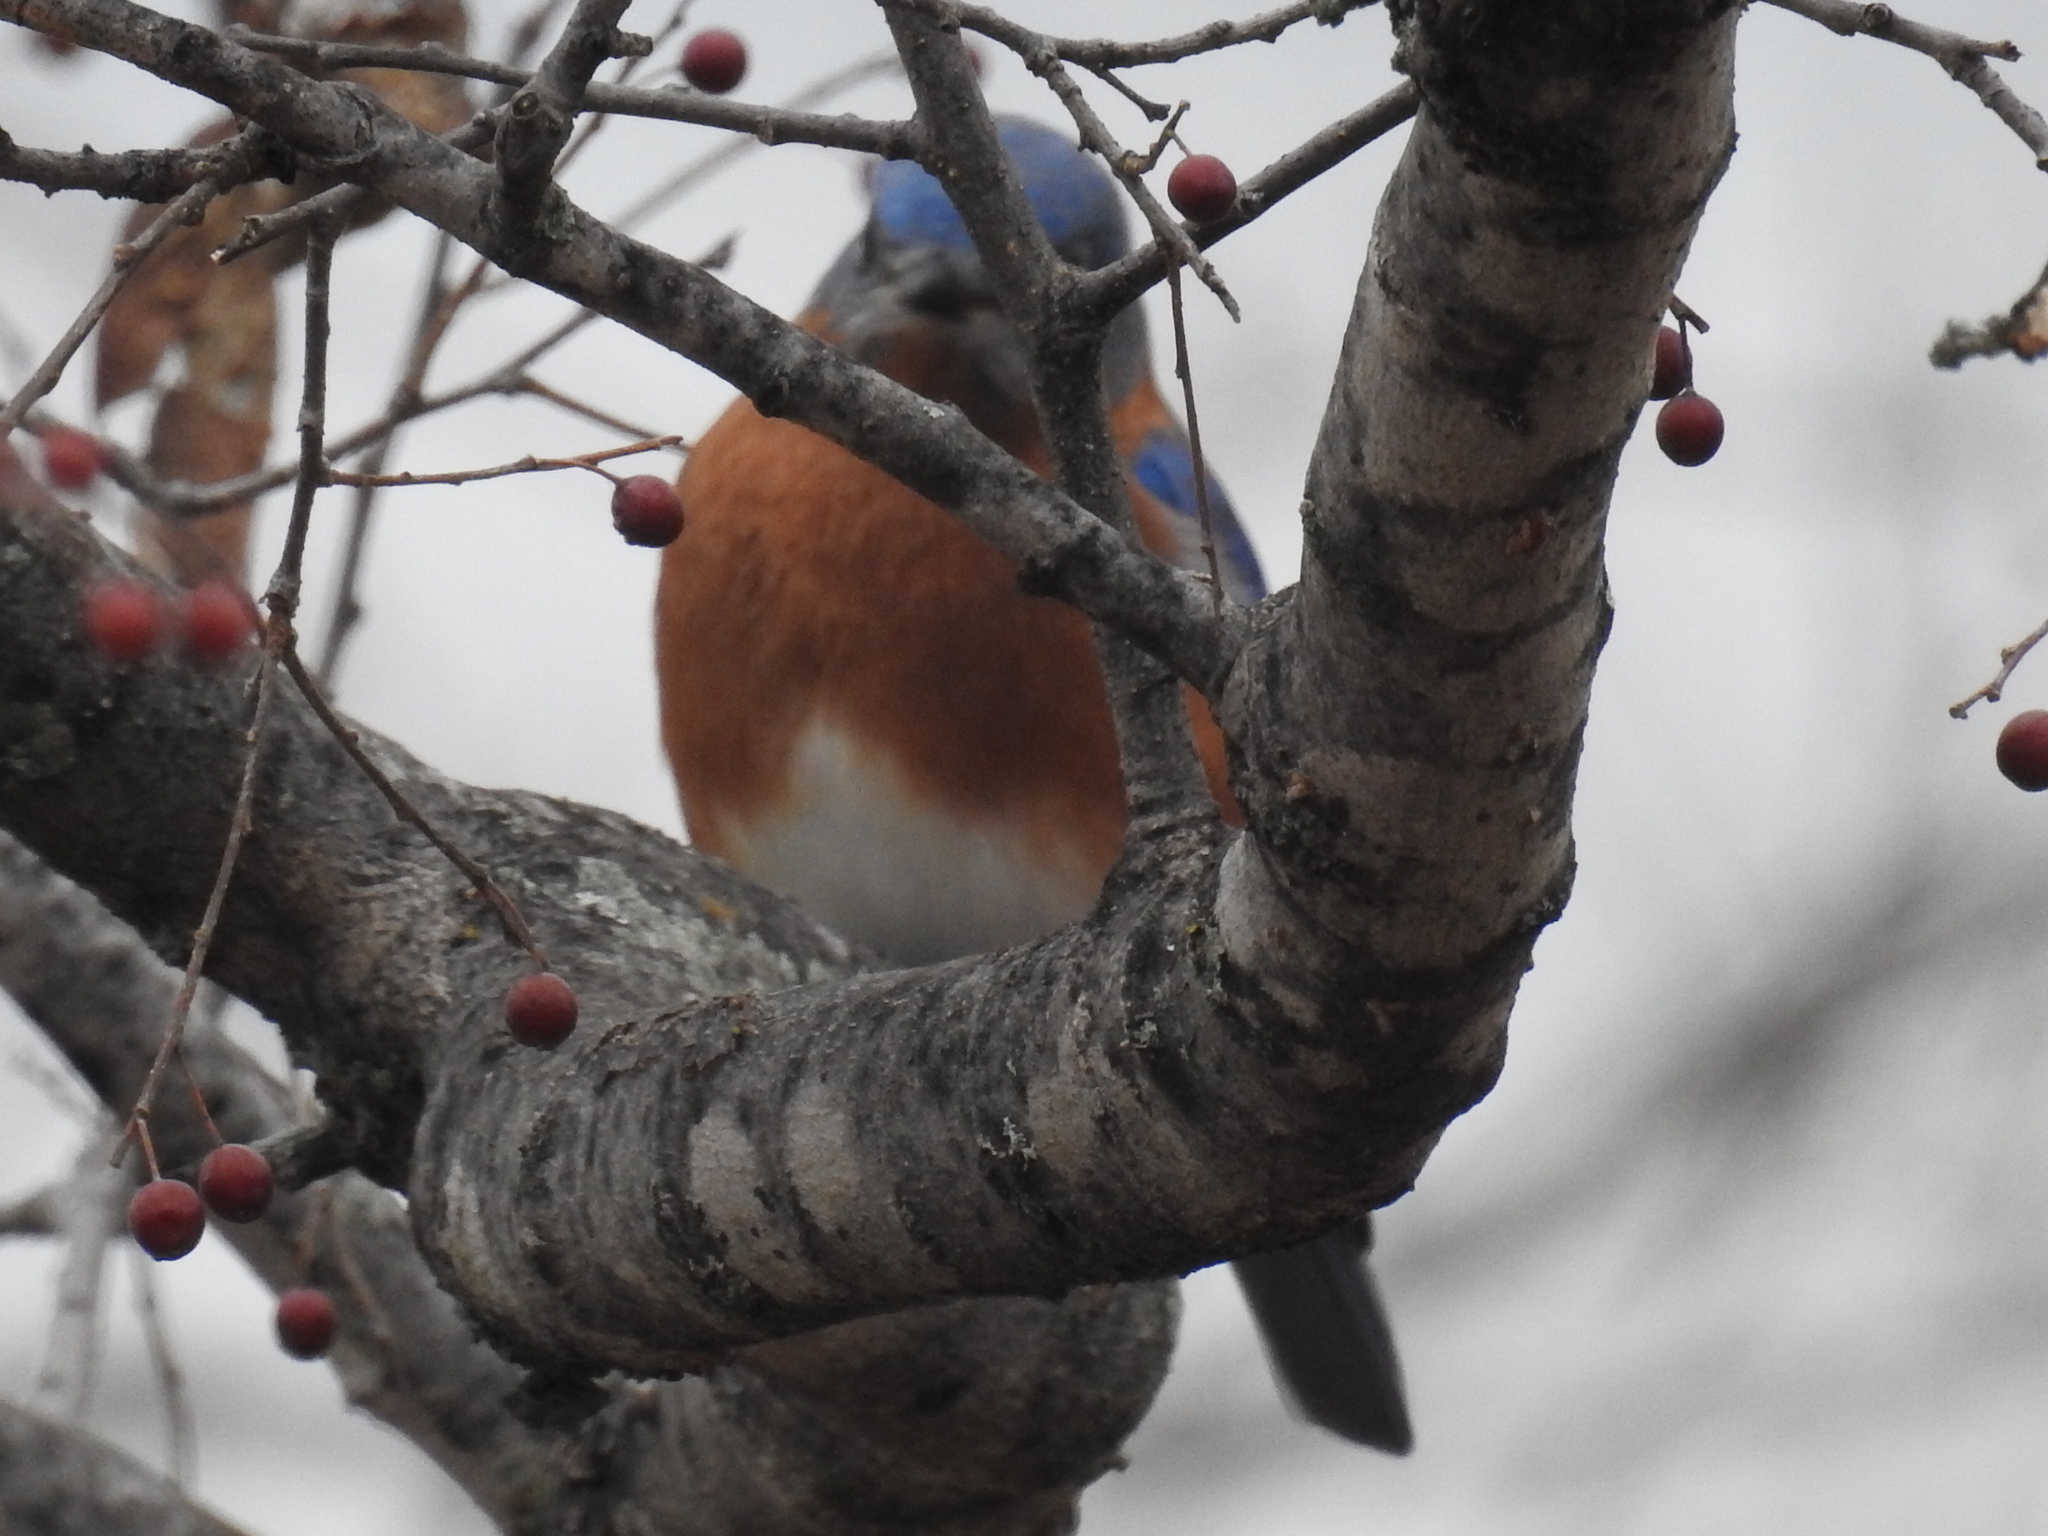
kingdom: Animalia
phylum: Chordata
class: Aves
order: Passeriformes
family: Turdidae
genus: Sialia
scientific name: Sialia sialis
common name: Eastern bluebird
